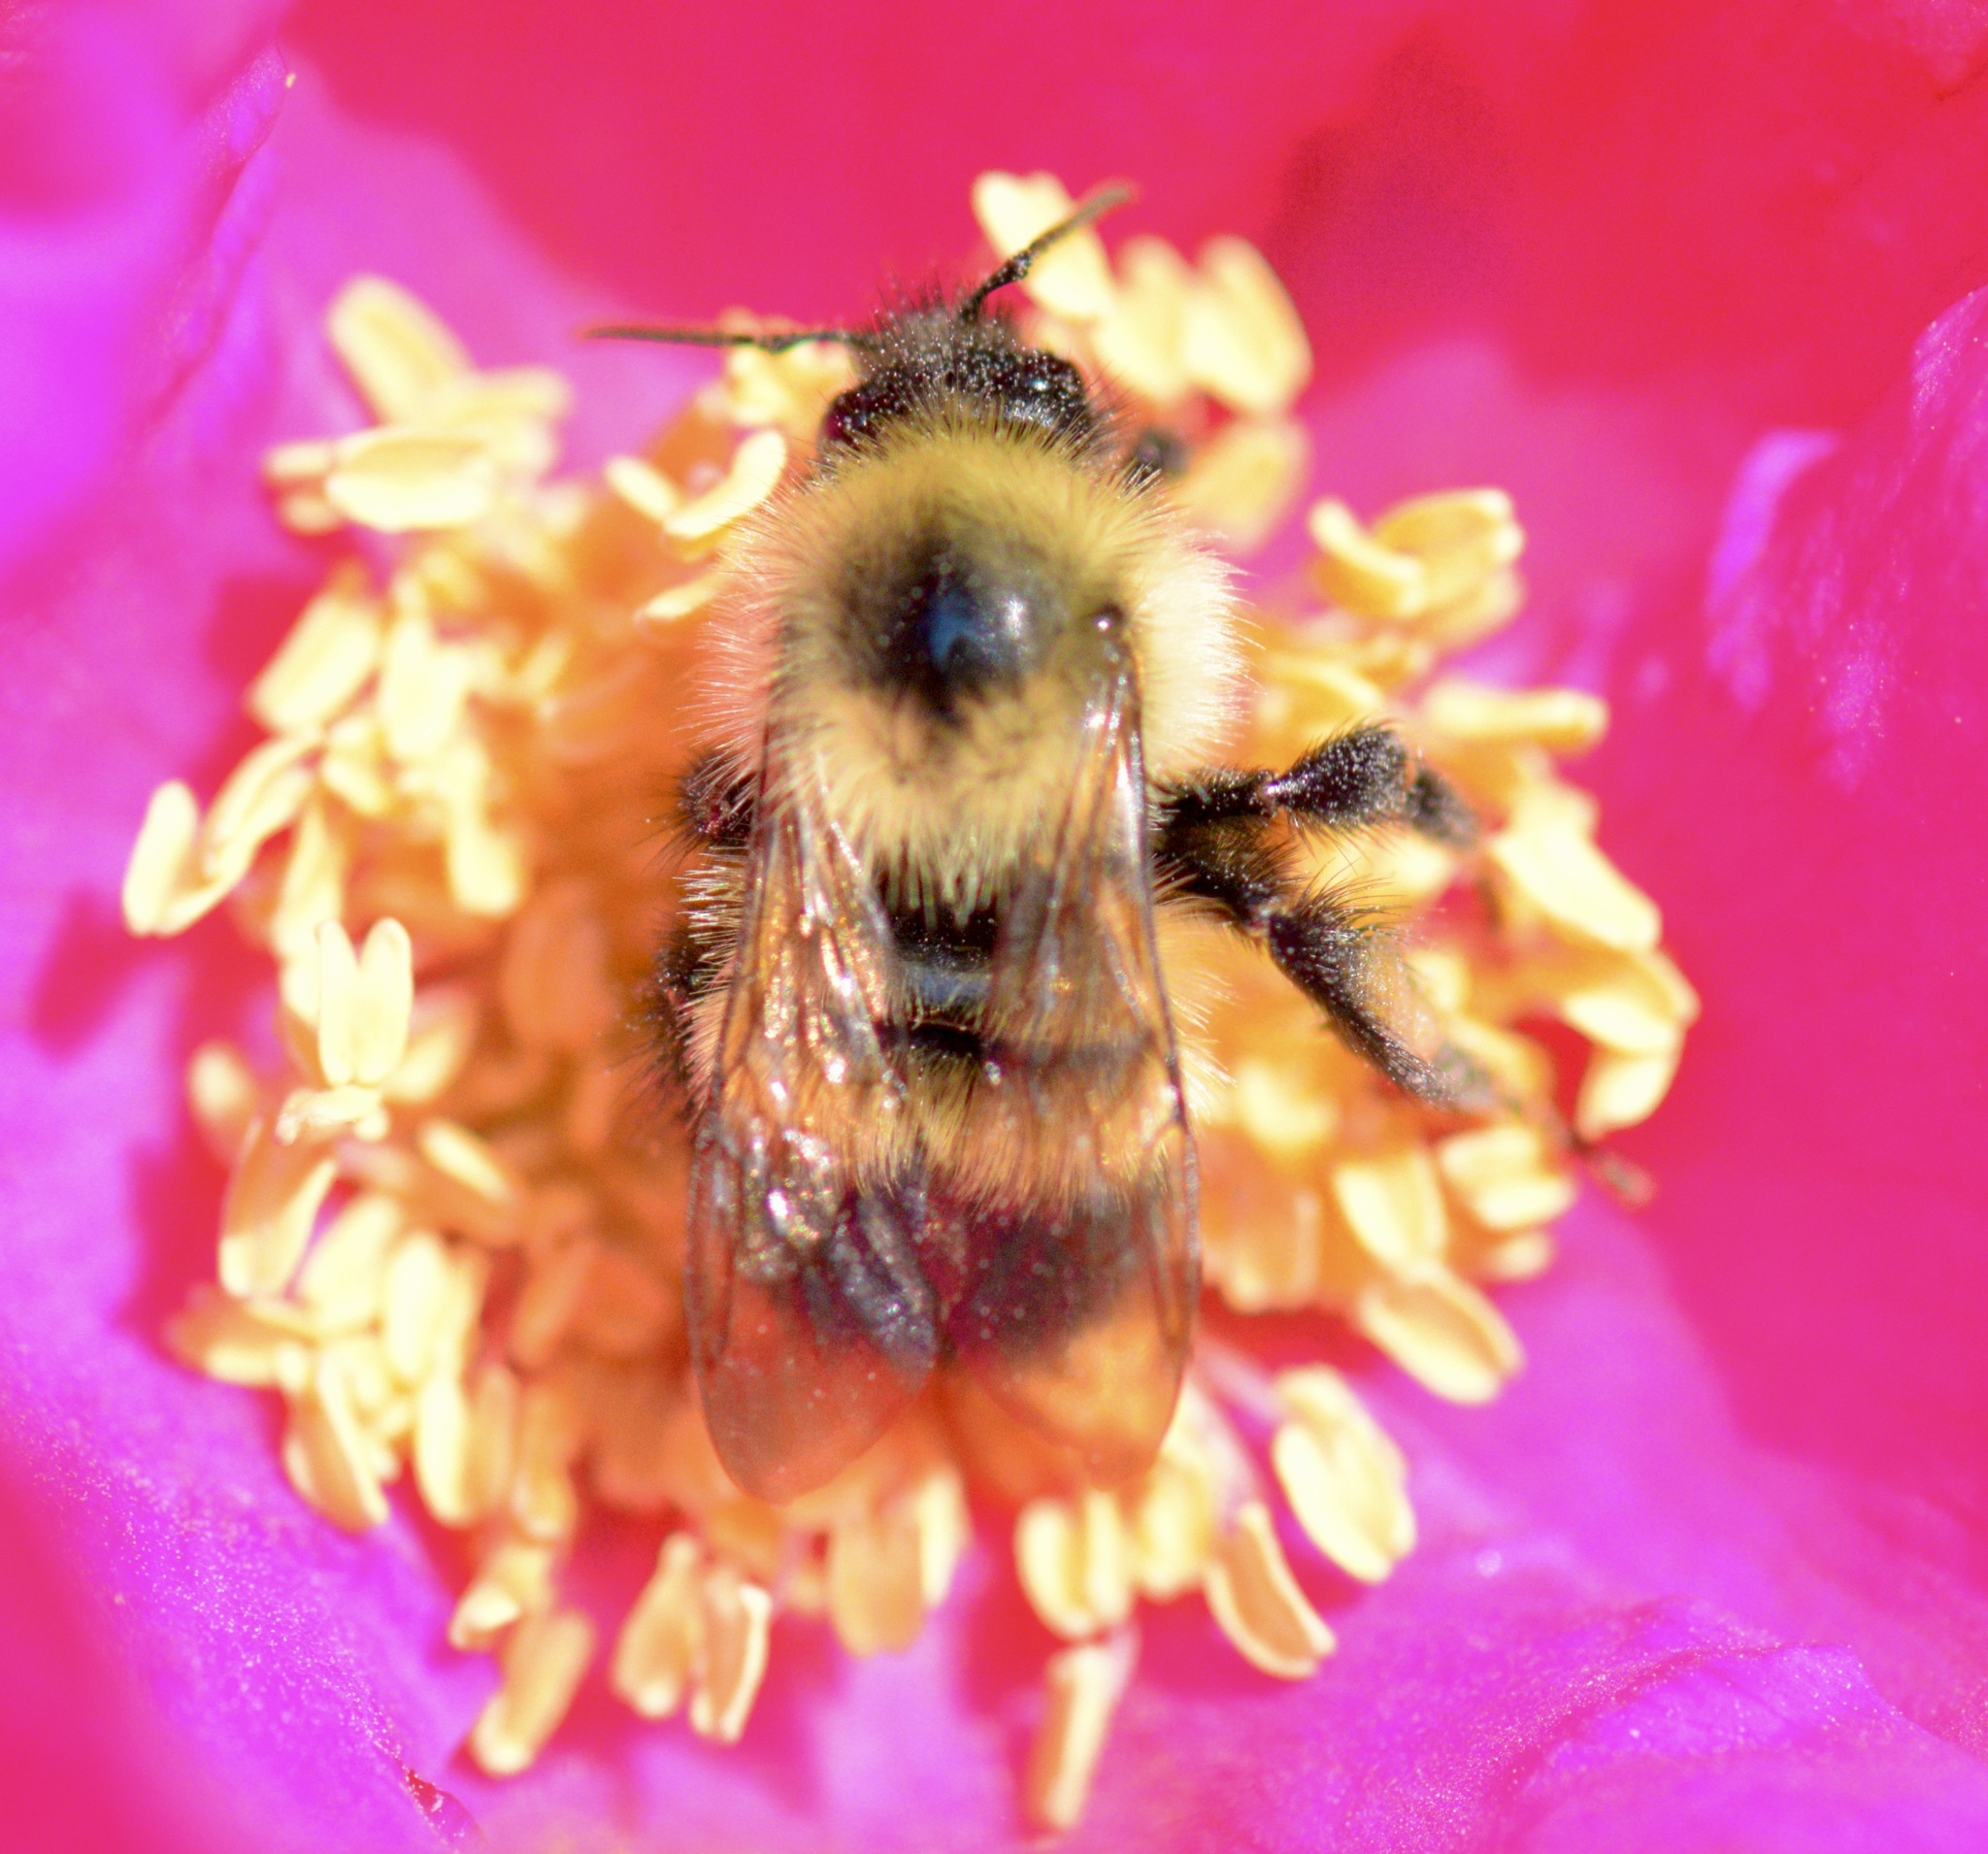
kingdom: Animalia
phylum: Arthropoda
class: Insecta
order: Hymenoptera
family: Apidae
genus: Pyrobombus
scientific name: Pyrobombus
